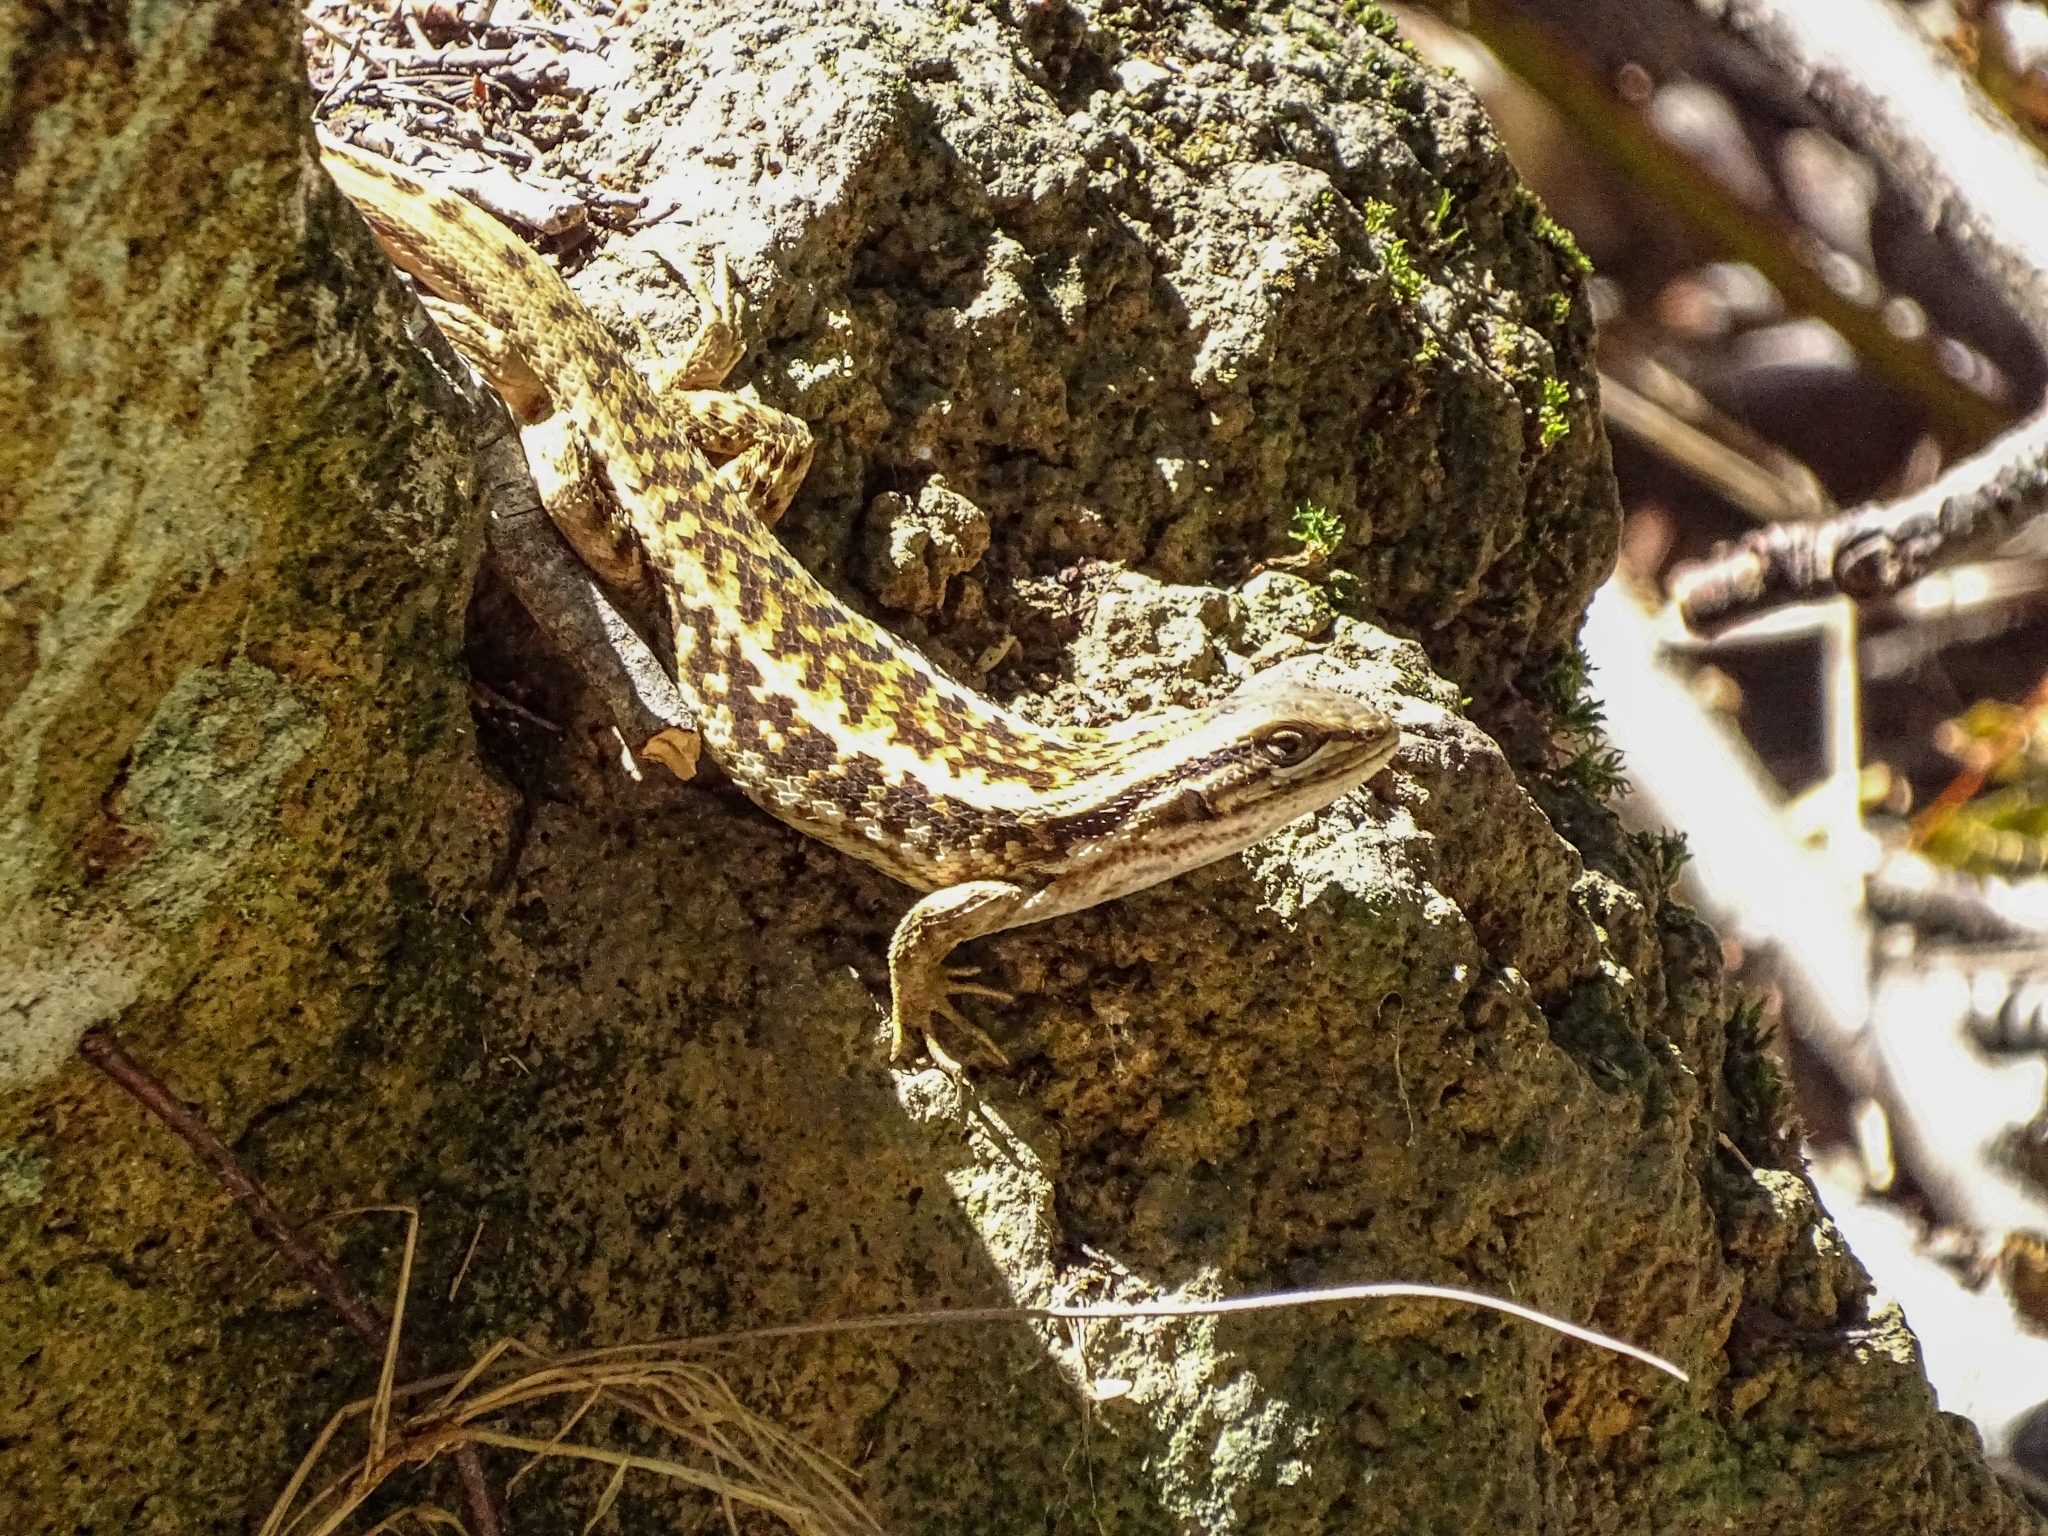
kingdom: Animalia
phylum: Chordata
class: Squamata
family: Liolaemidae
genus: Liolaemus
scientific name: Liolaemus chiliensis
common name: Chilean tree iguana
